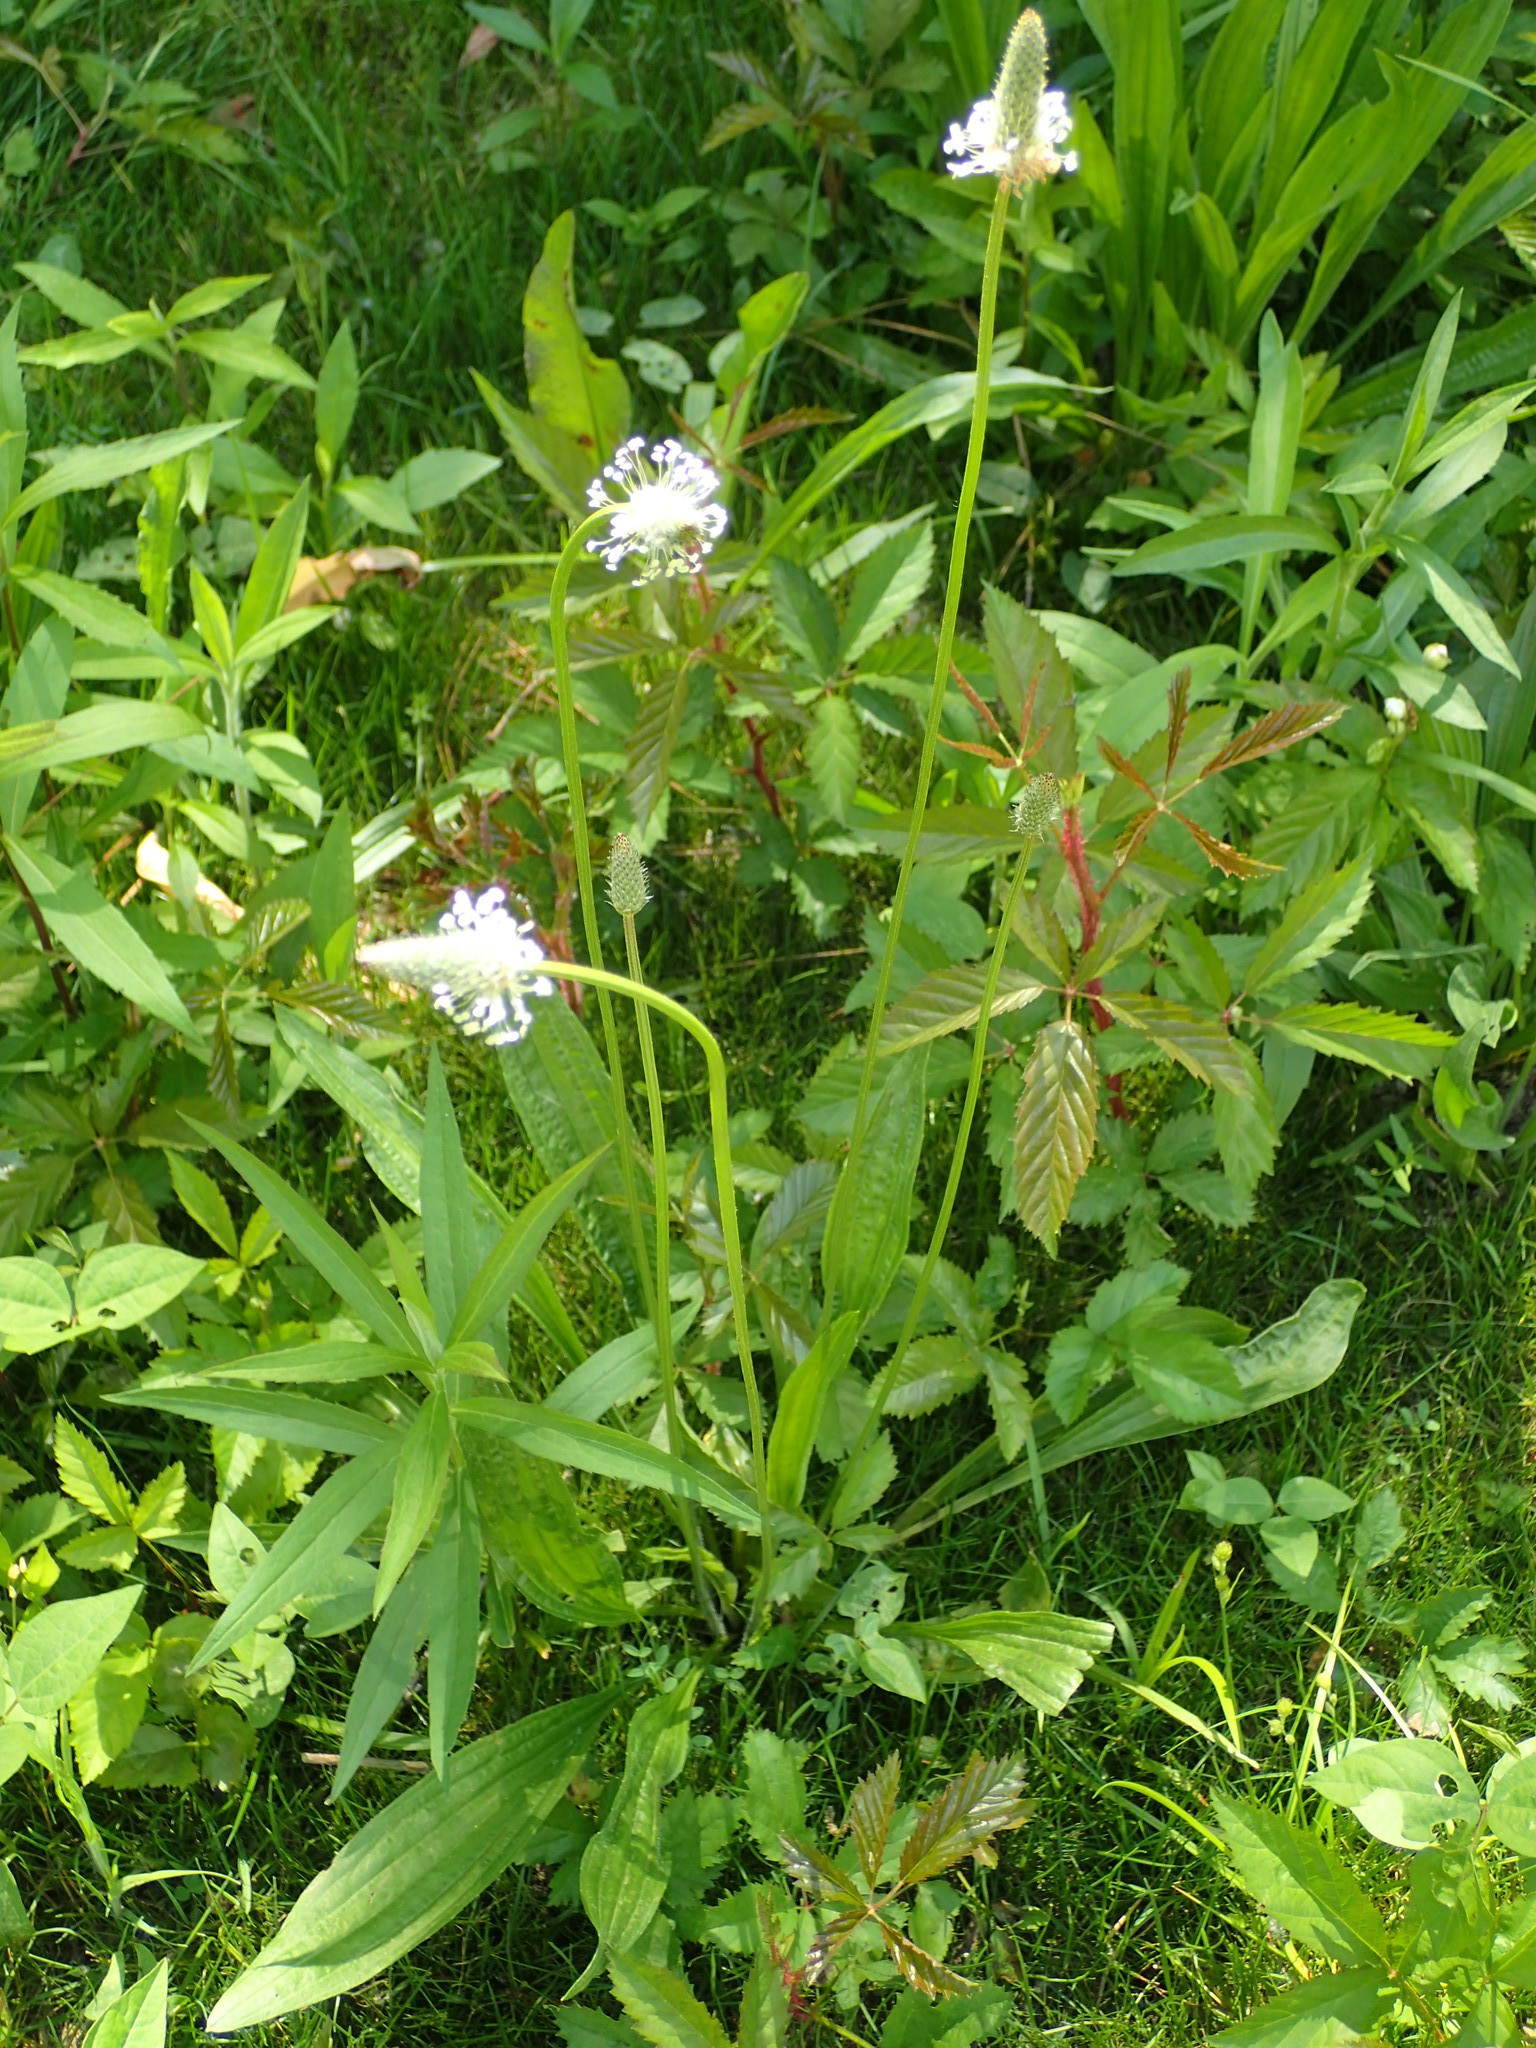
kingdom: Plantae
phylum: Tracheophyta
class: Magnoliopsida
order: Lamiales
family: Plantaginaceae
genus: Plantago
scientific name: Plantago lanceolata
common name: Ribwort plantain
